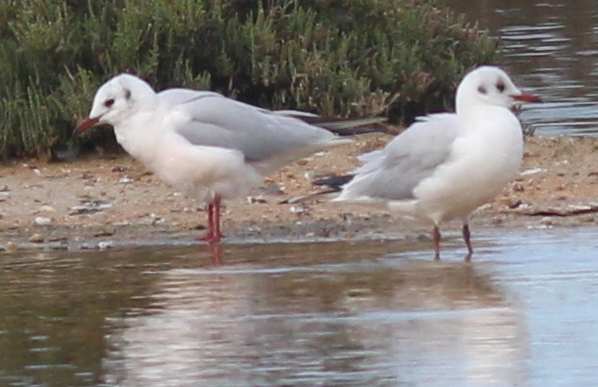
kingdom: Animalia
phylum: Chordata
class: Aves
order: Charadriiformes
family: Laridae
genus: Chroicocephalus
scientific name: Chroicocephalus ridibundus
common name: Black-headed gull
